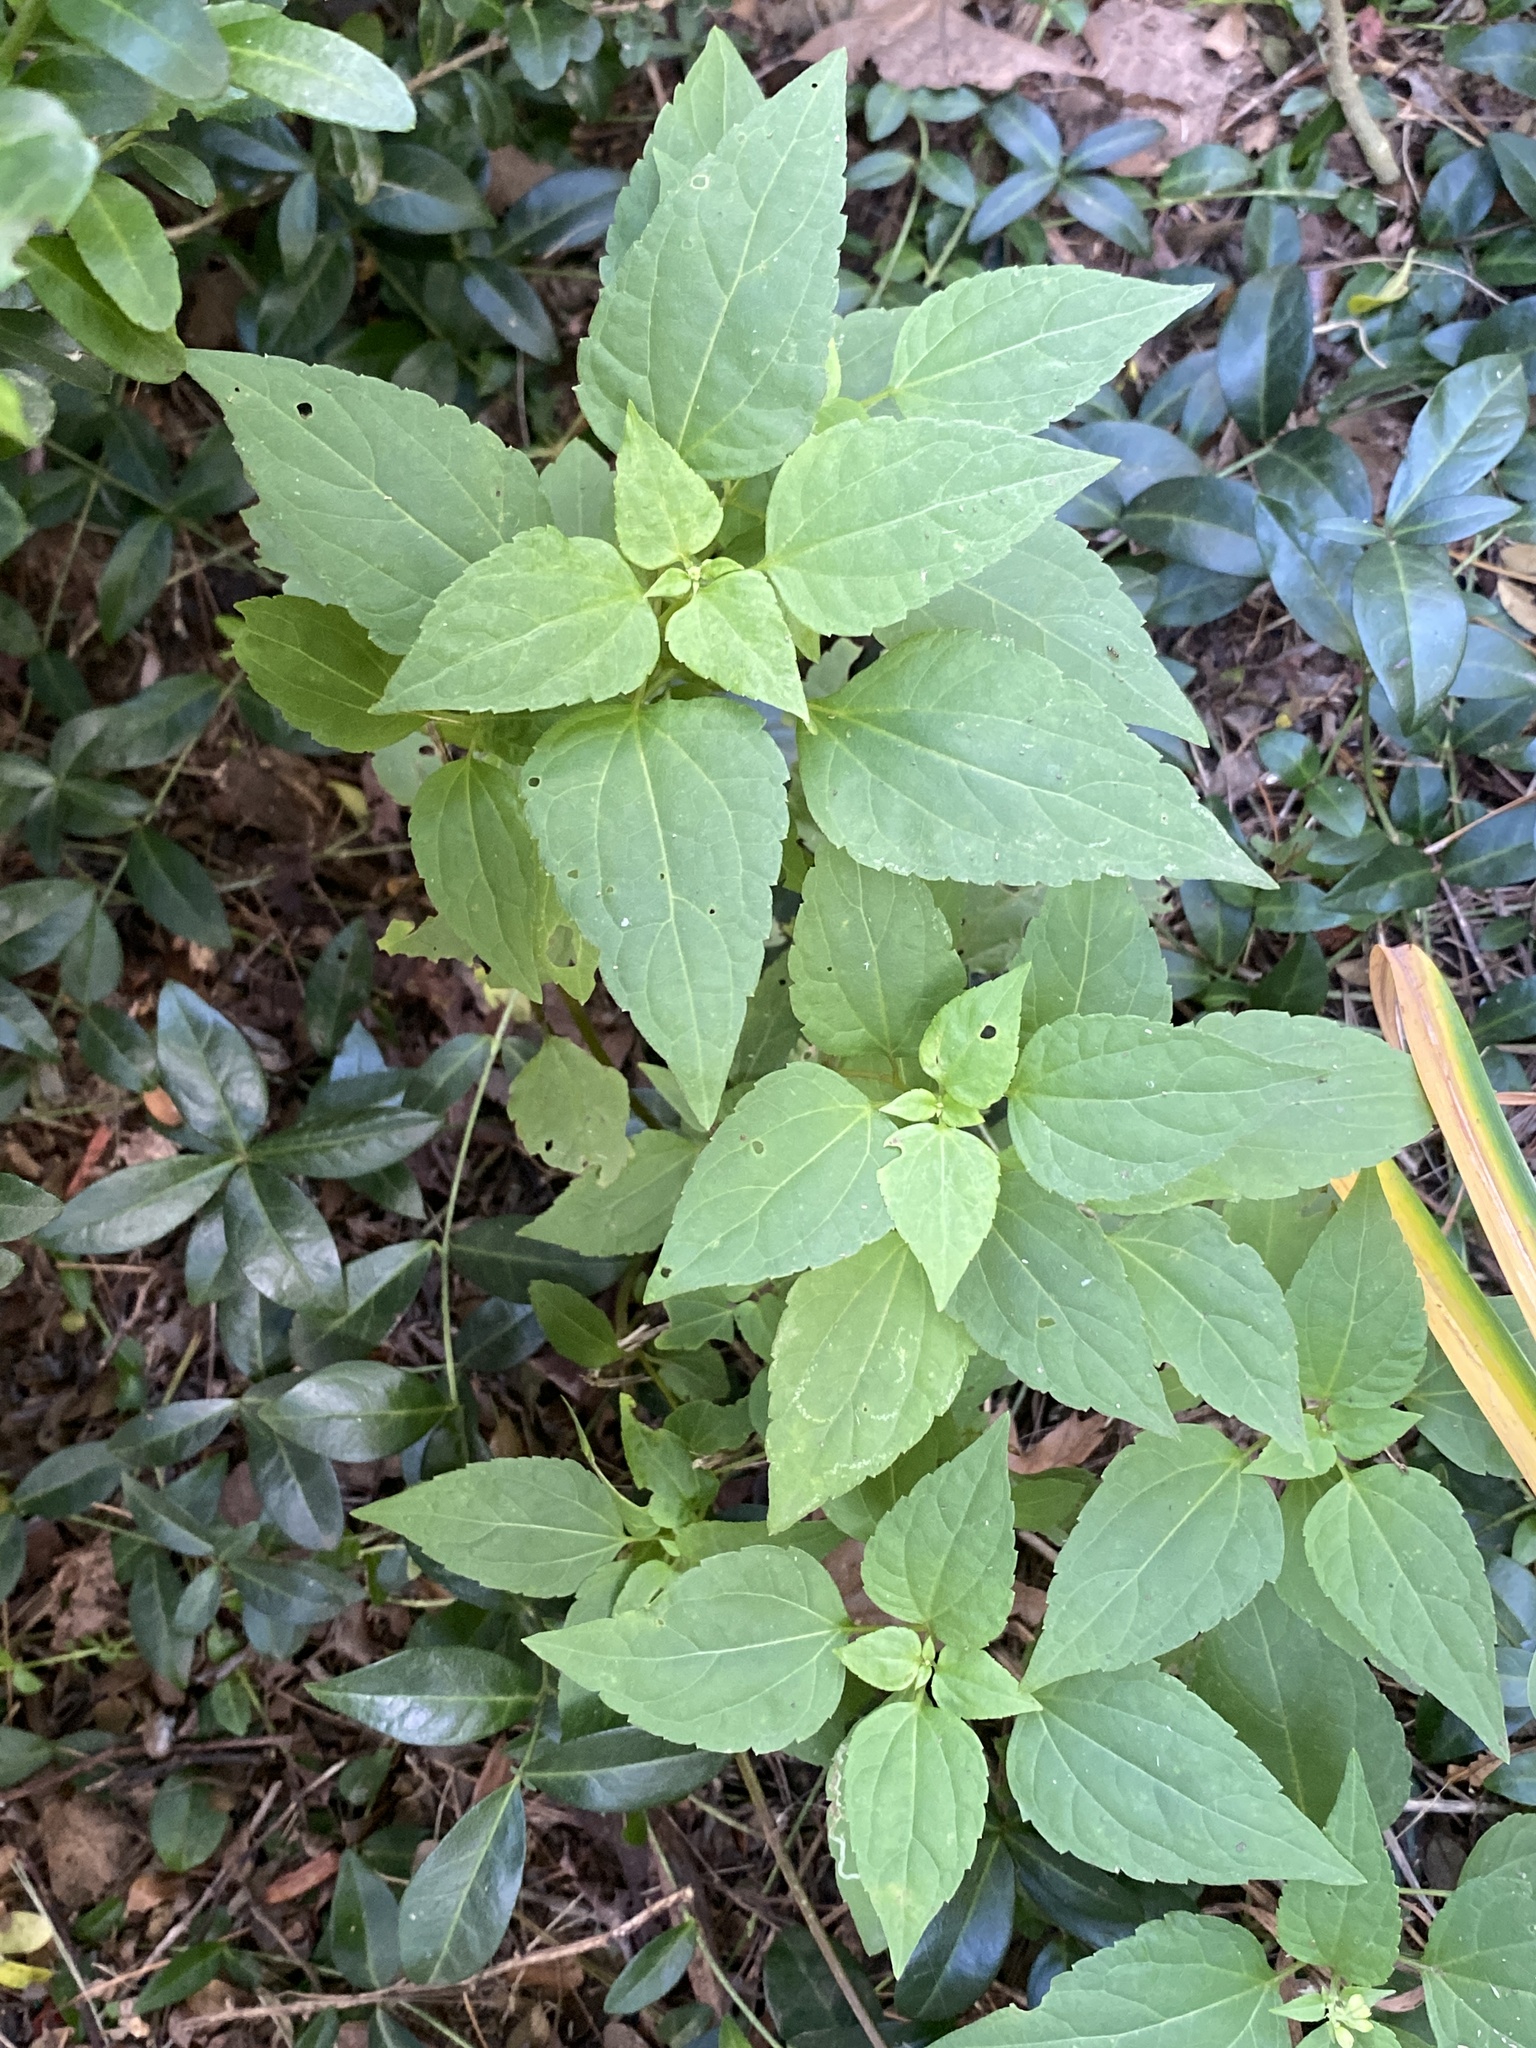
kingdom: Plantae
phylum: Tracheophyta
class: Magnoliopsida
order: Asterales
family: Asteraceae
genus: Ageratina
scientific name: Ageratina altissima
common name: White snakeroot
